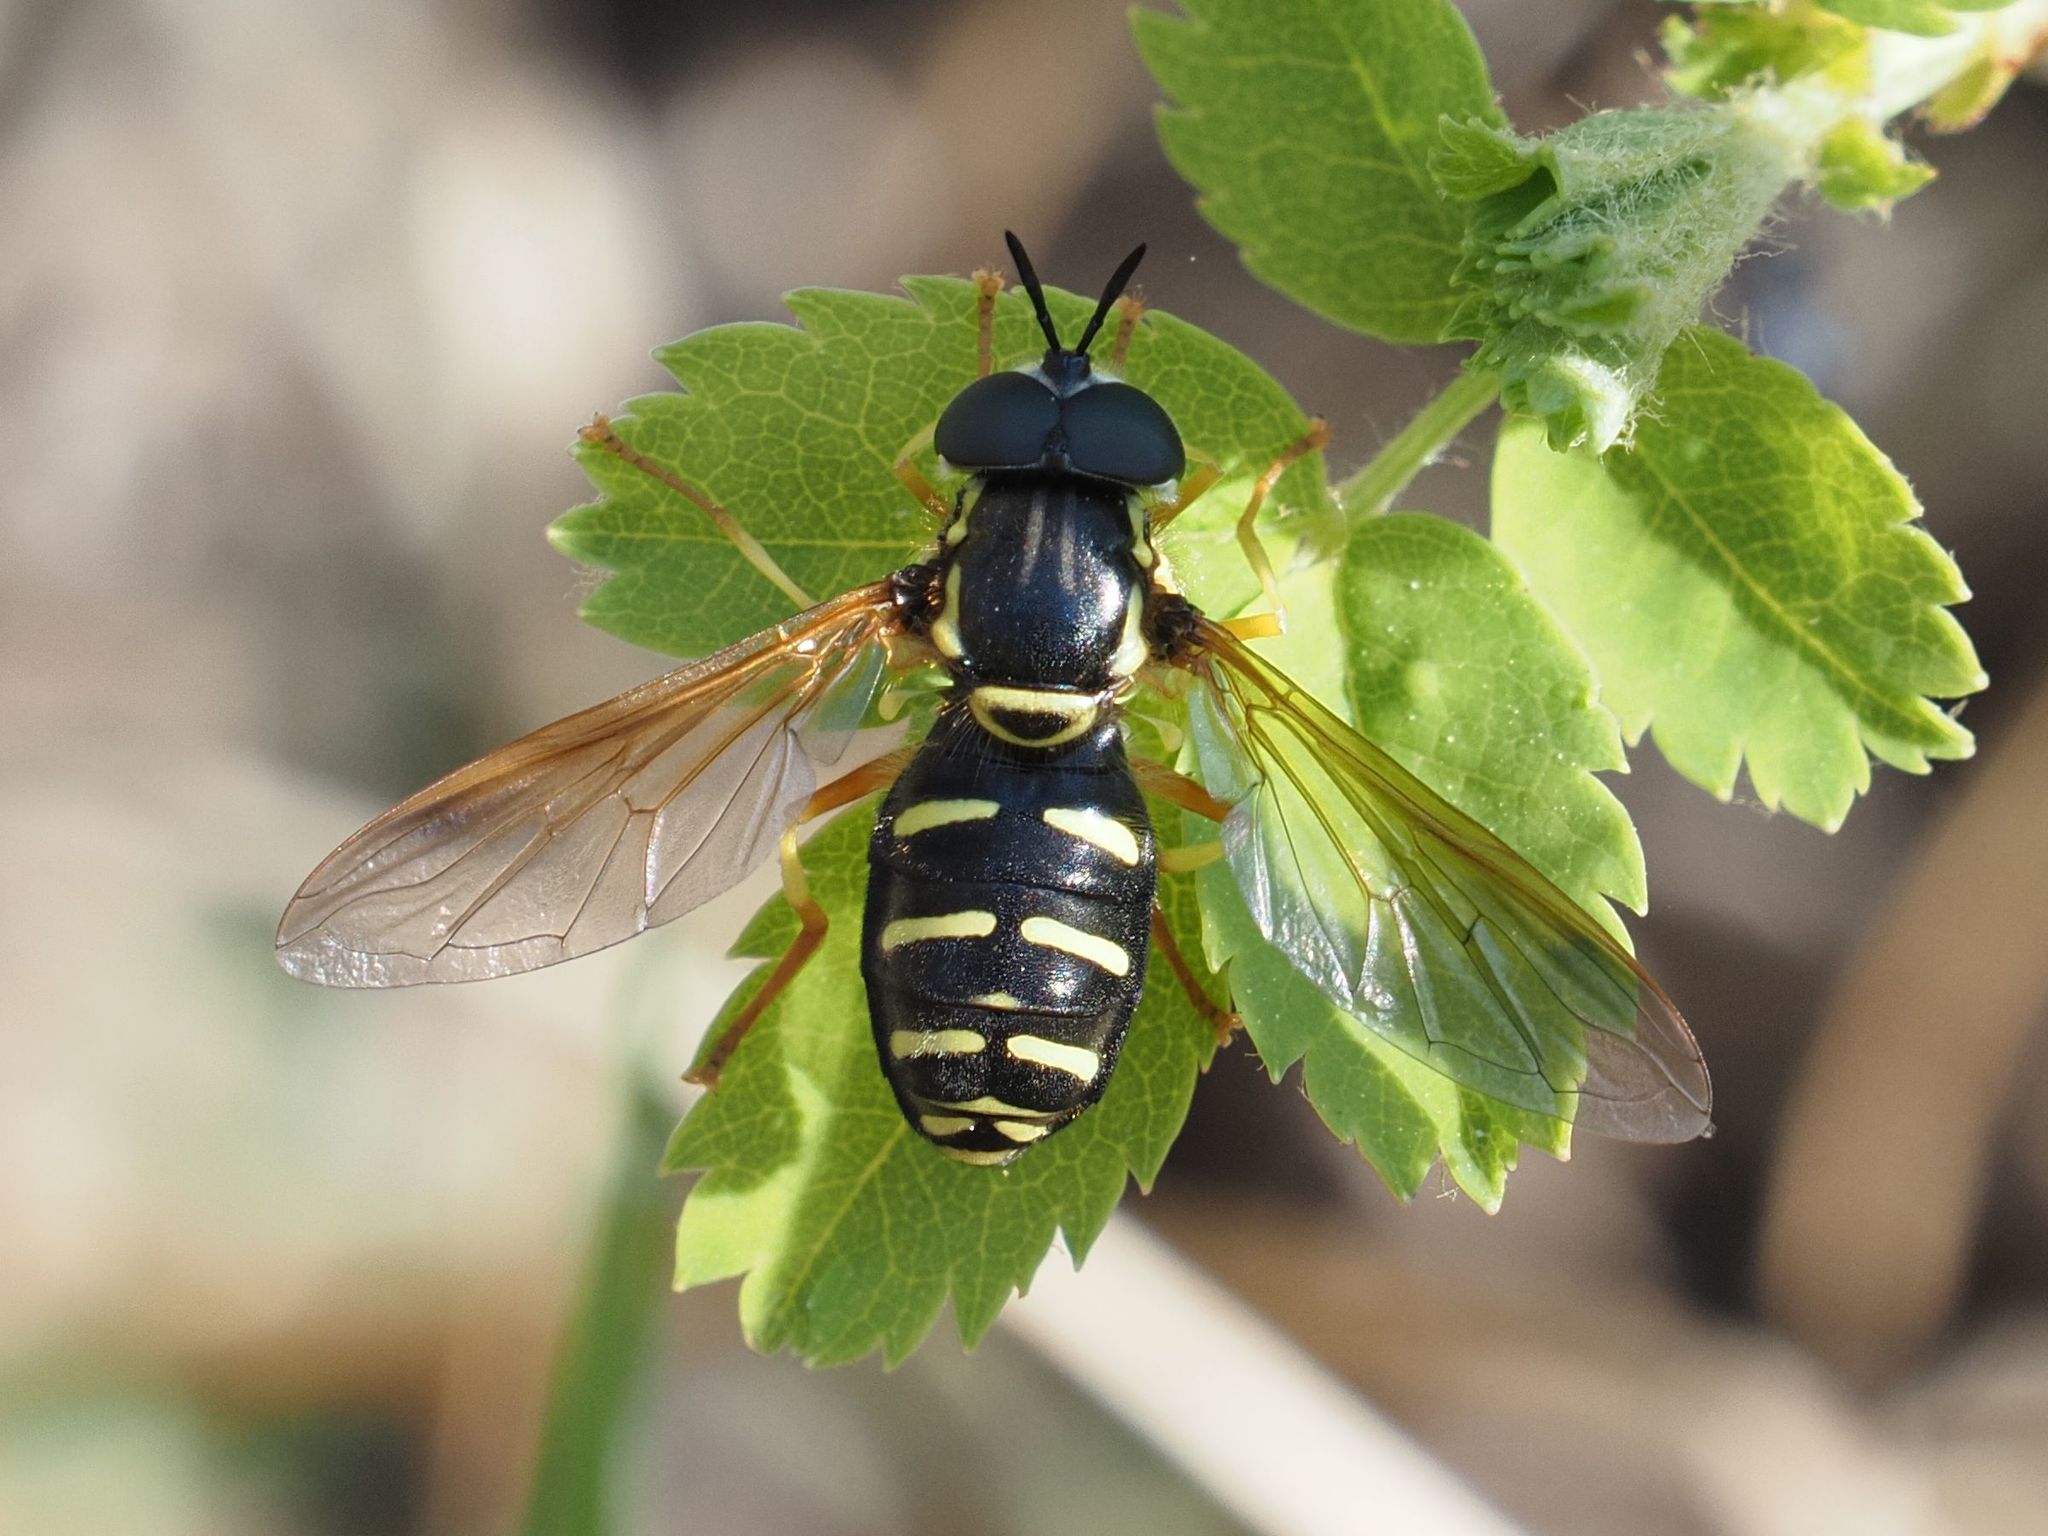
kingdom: Animalia
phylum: Arthropoda
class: Insecta
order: Diptera
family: Syrphidae
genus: Chrysotoxum
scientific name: Chrysotoxum festivum
